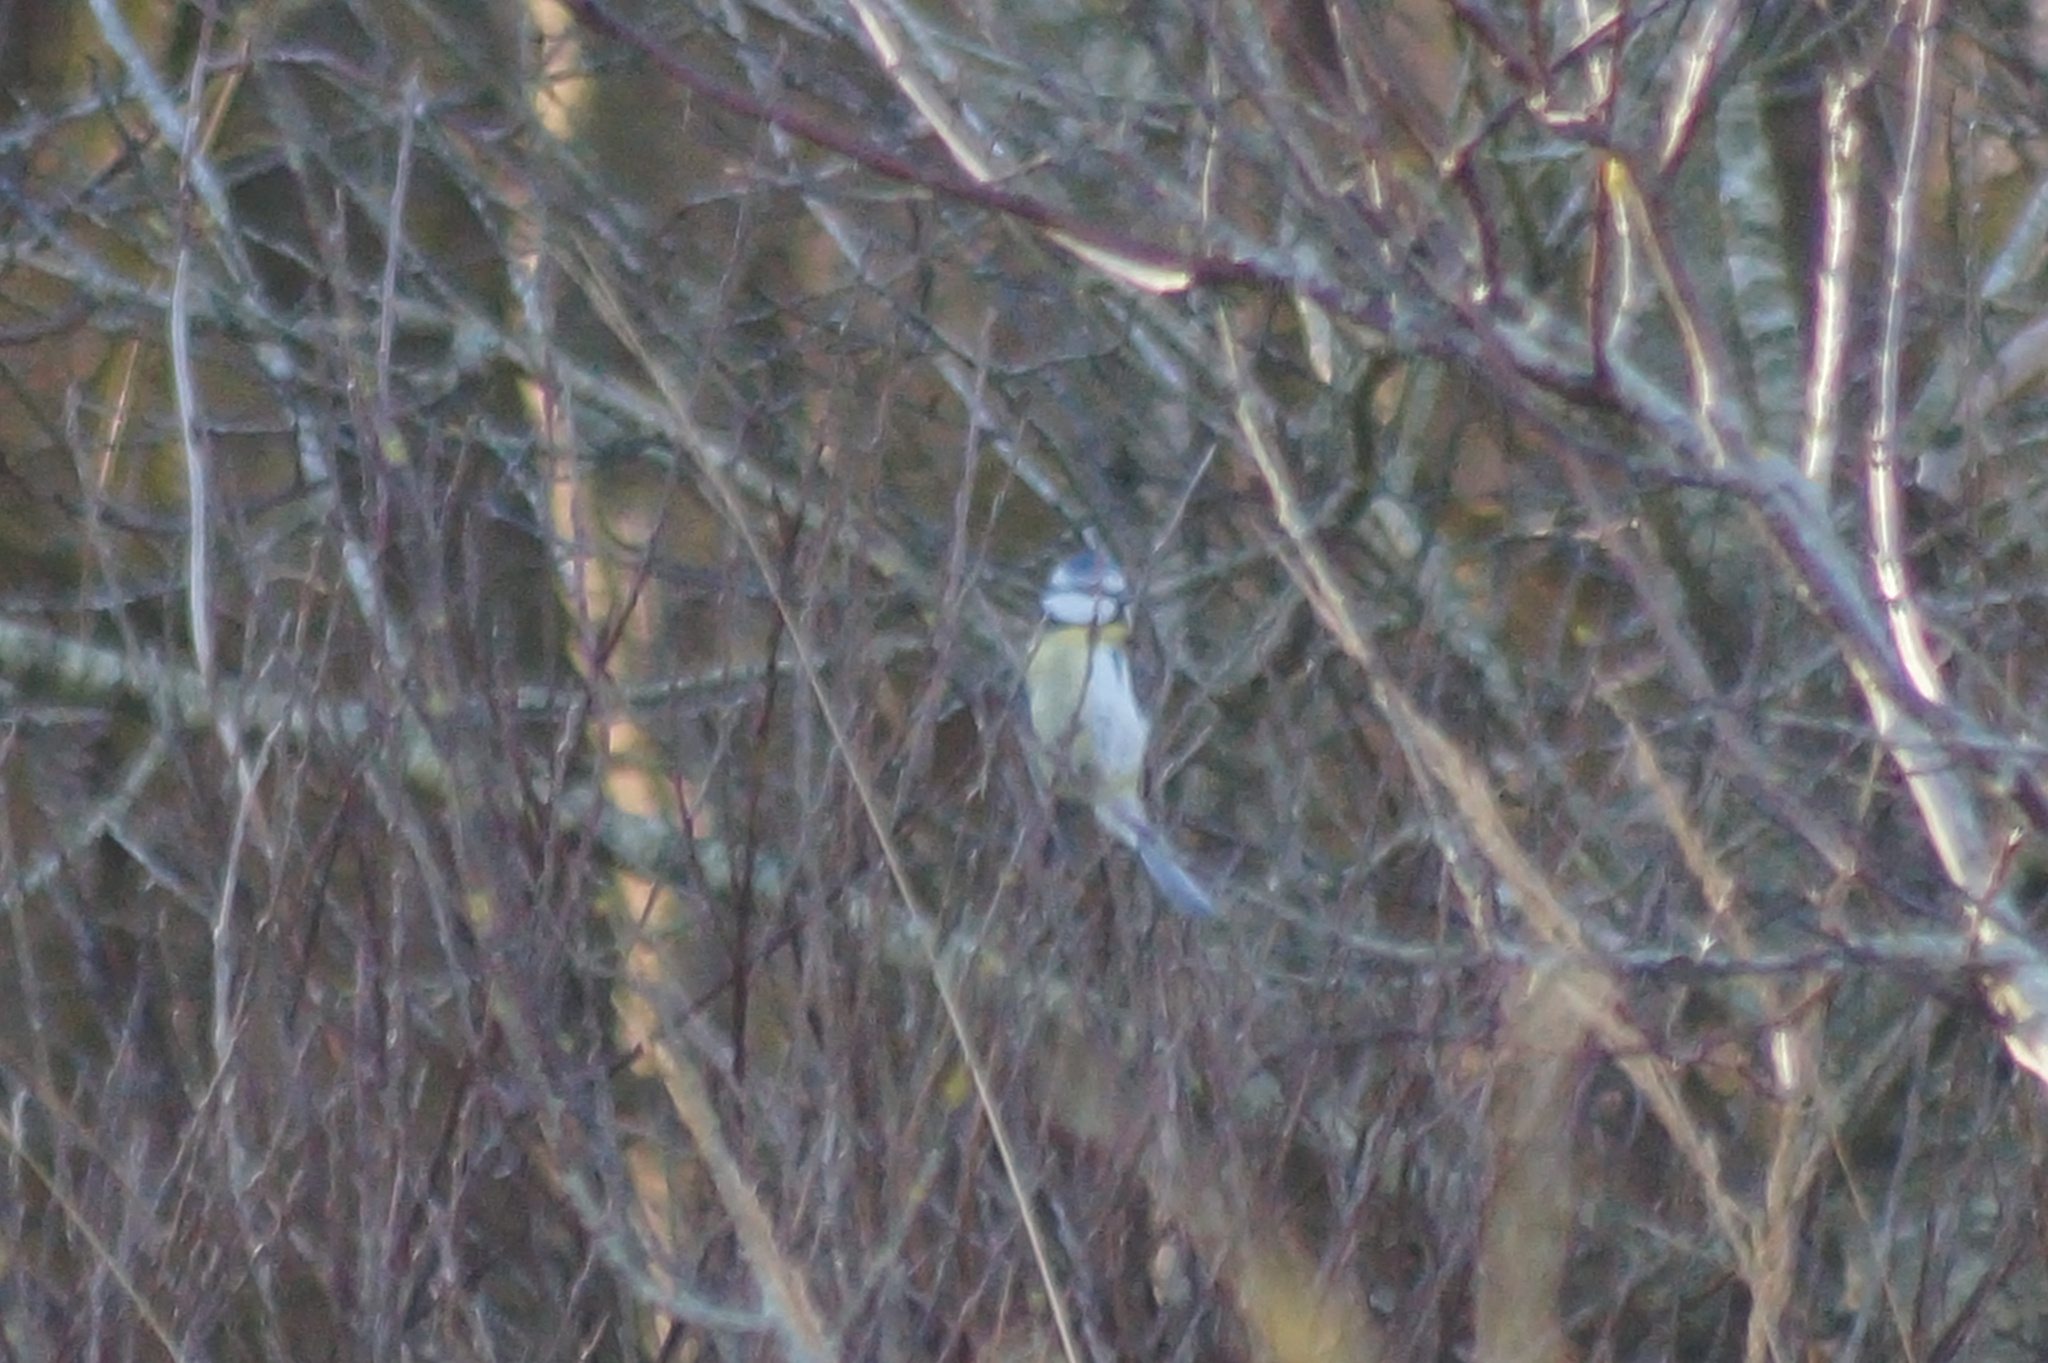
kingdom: Animalia
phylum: Chordata
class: Aves
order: Passeriformes
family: Paridae
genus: Cyanistes
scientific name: Cyanistes caeruleus
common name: Eurasian blue tit
